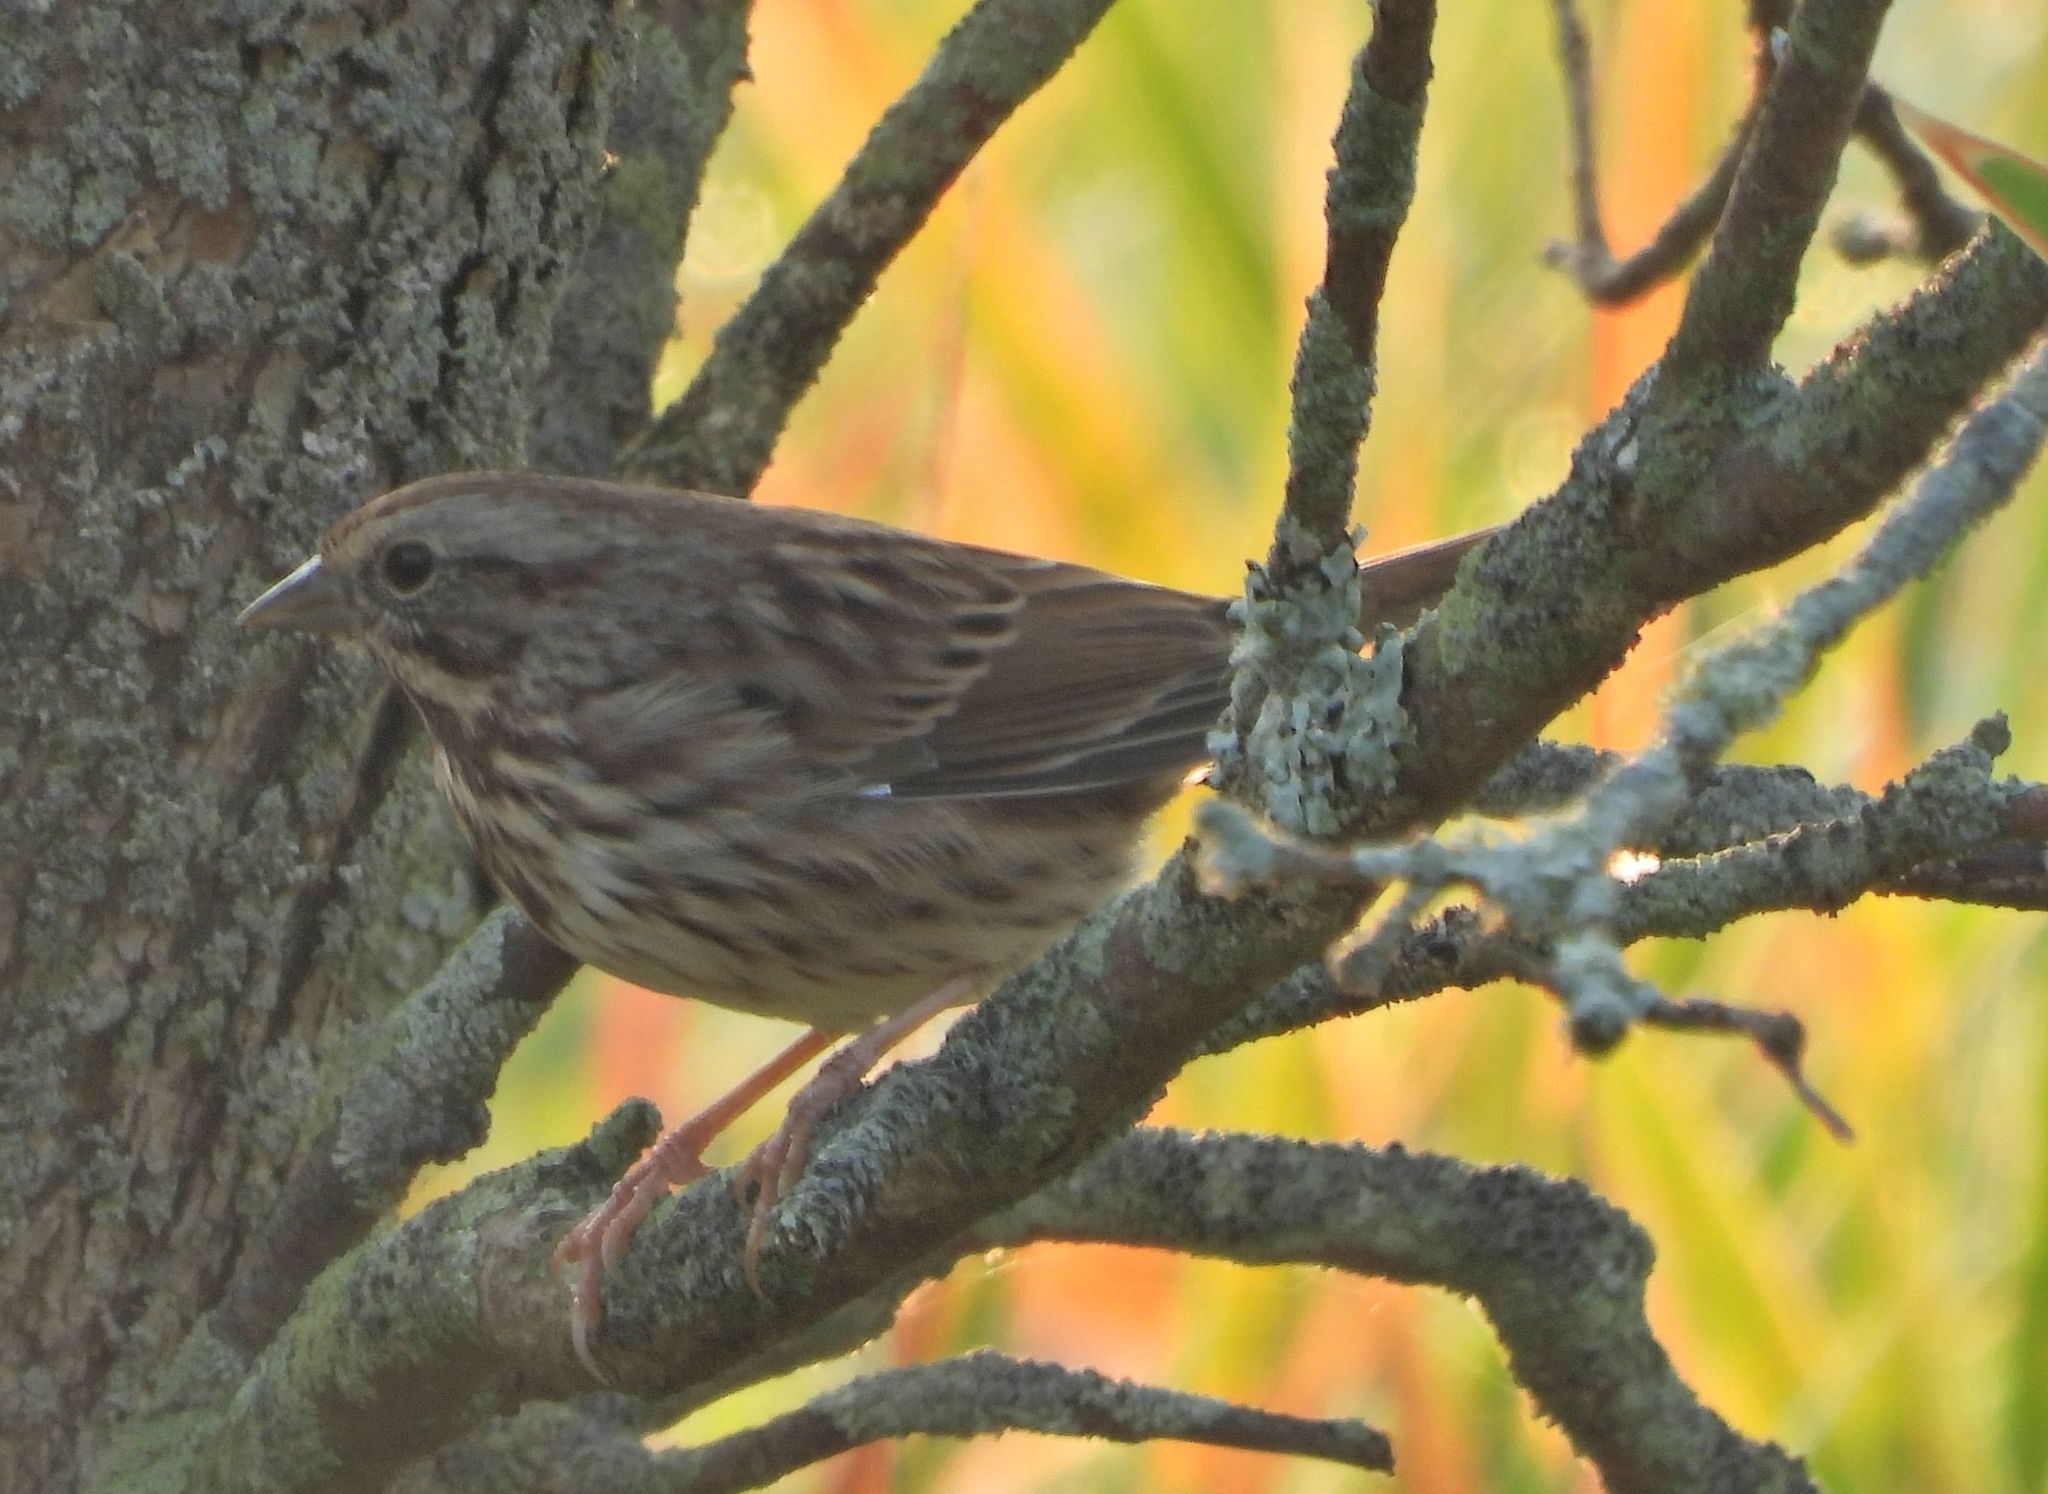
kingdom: Animalia
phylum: Chordata
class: Aves
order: Passeriformes
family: Passerellidae
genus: Melospiza
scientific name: Melospiza melodia
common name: Song sparrow
